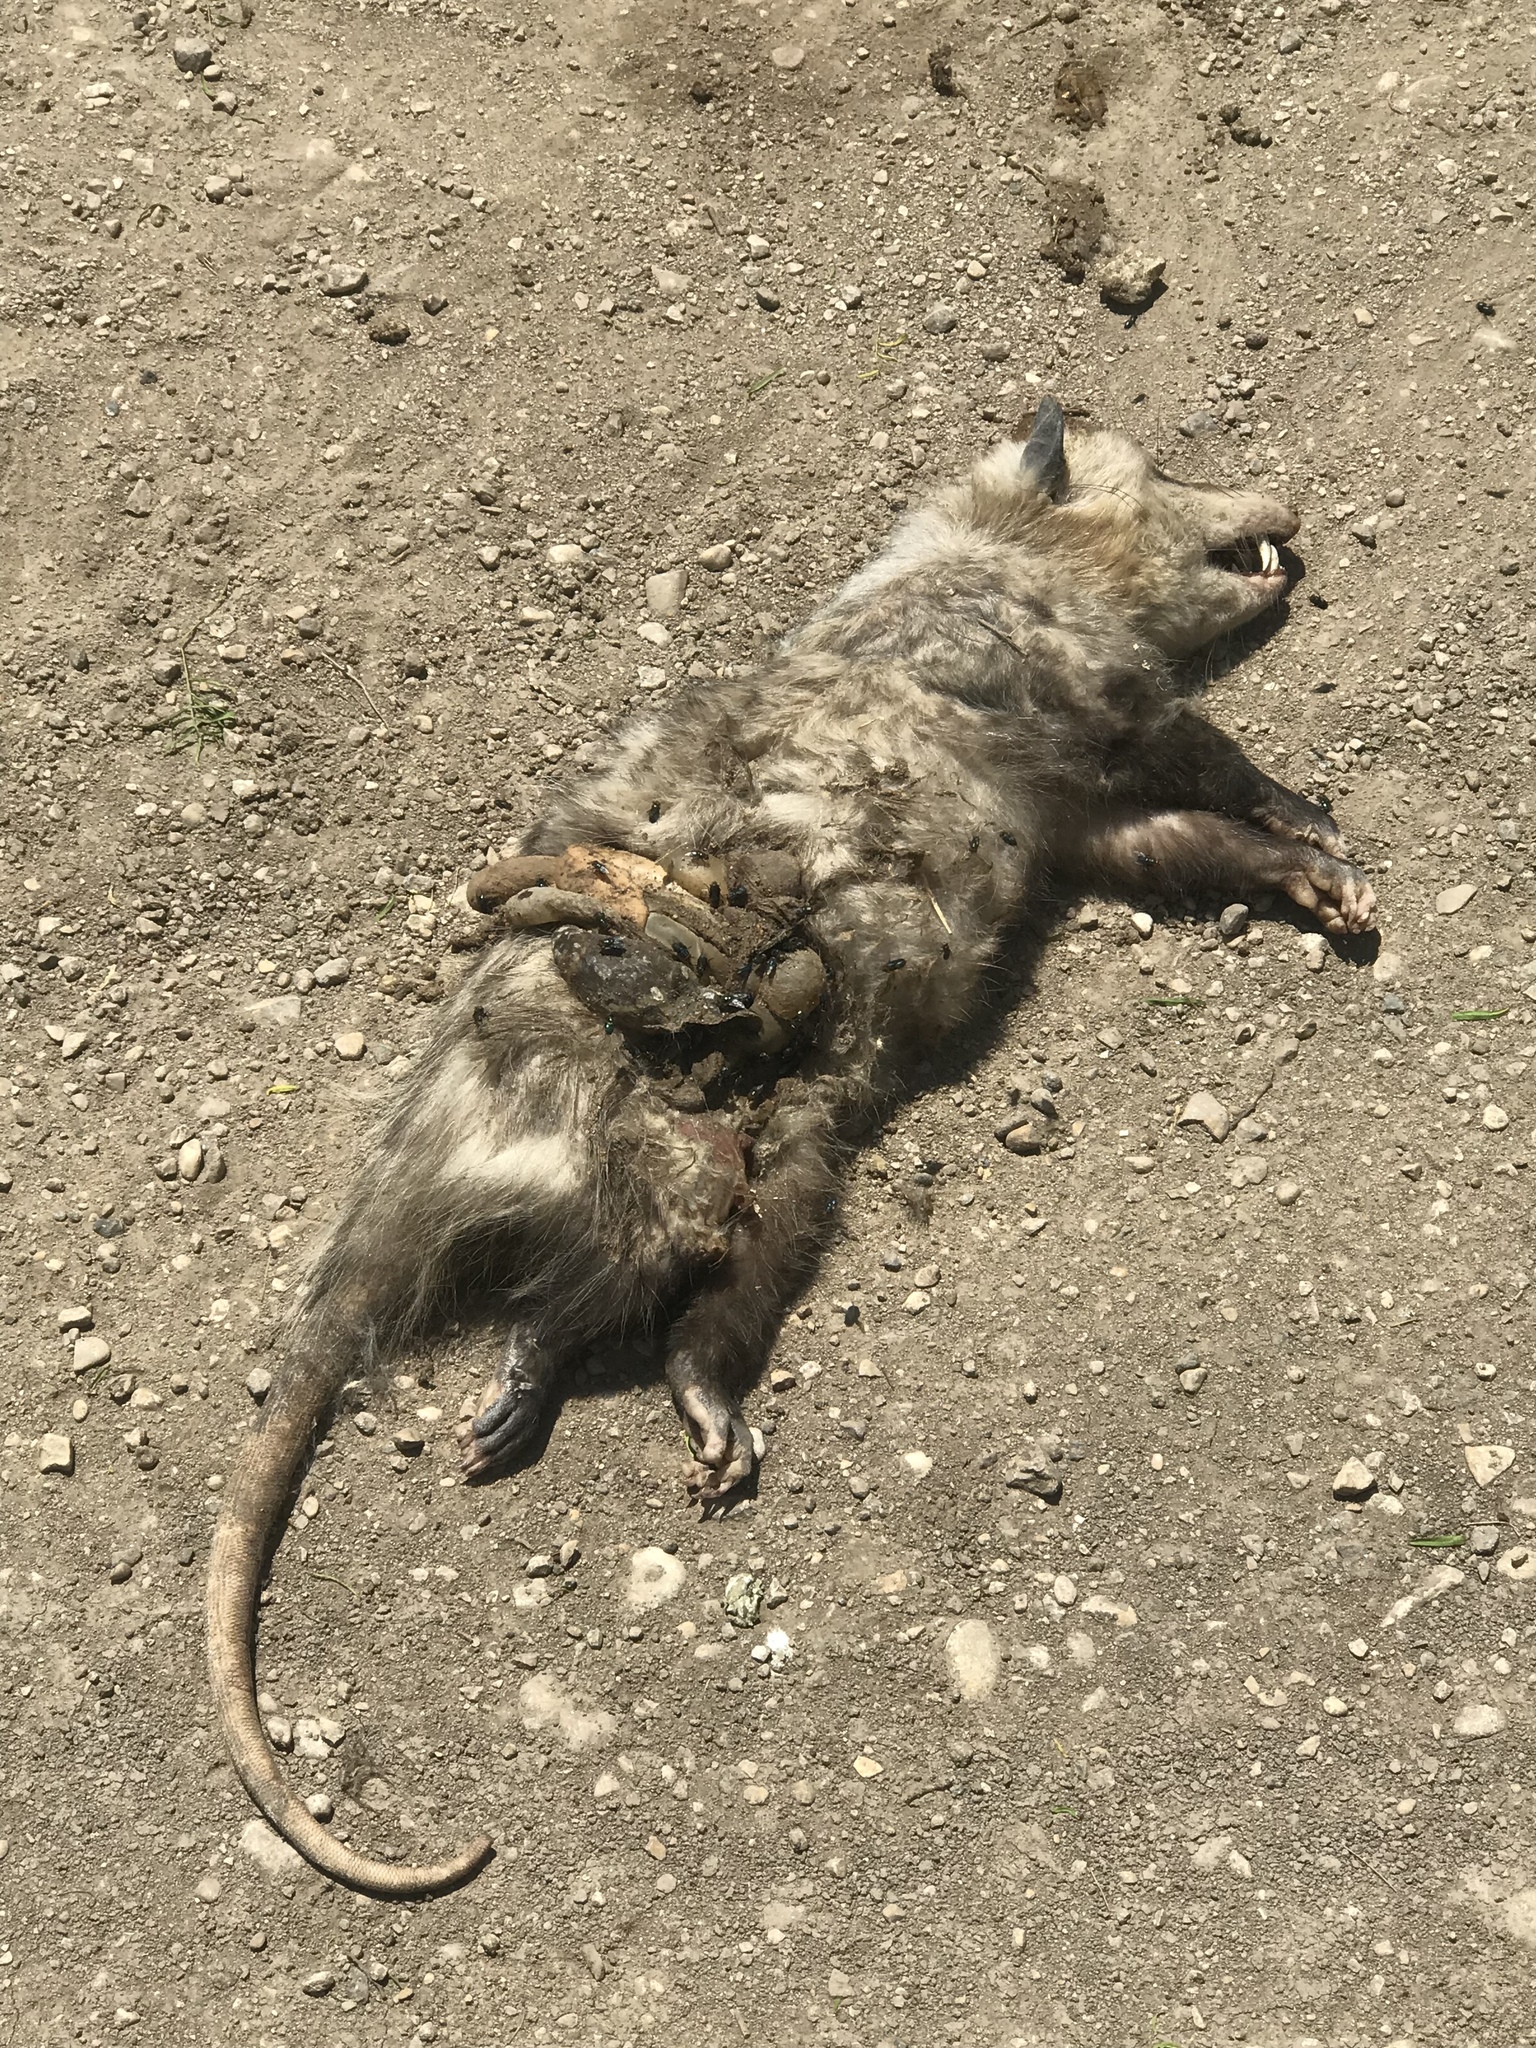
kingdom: Animalia
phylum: Chordata
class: Mammalia
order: Didelphimorphia
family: Didelphidae
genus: Didelphis
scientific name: Didelphis virginiana
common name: Virginia opossum
